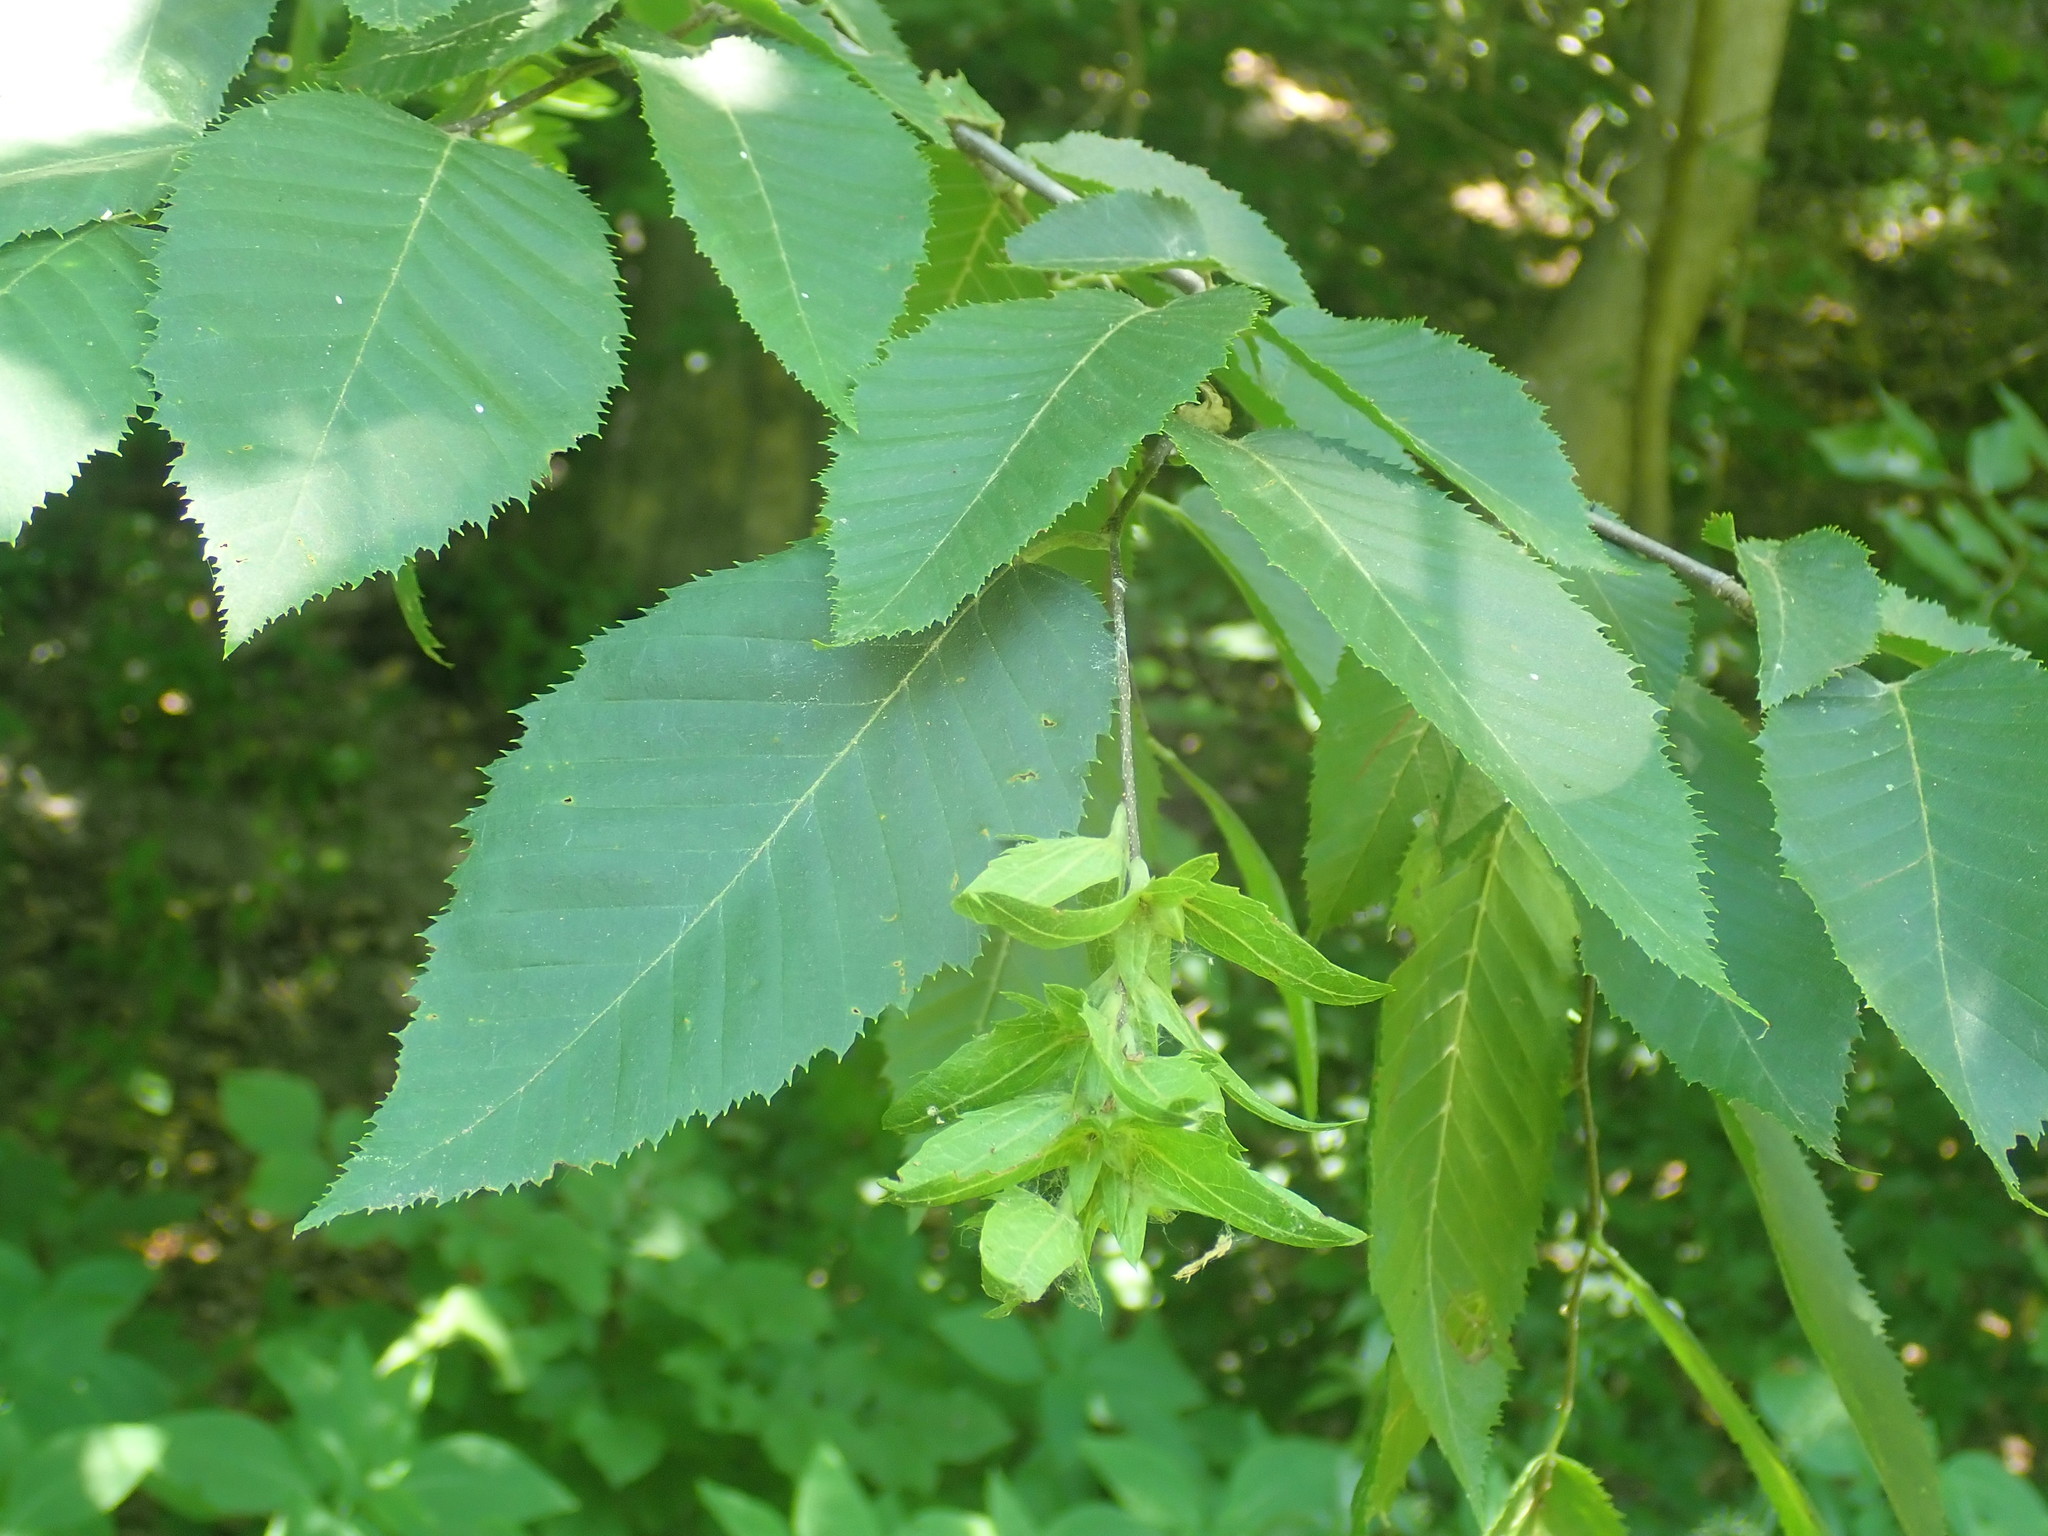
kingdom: Plantae
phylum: Tracheophyta
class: Magnoliopsida
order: Fagales
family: Betulaceae
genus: Carpinus
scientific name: Carpinus caroliniana
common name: American hornbeam
